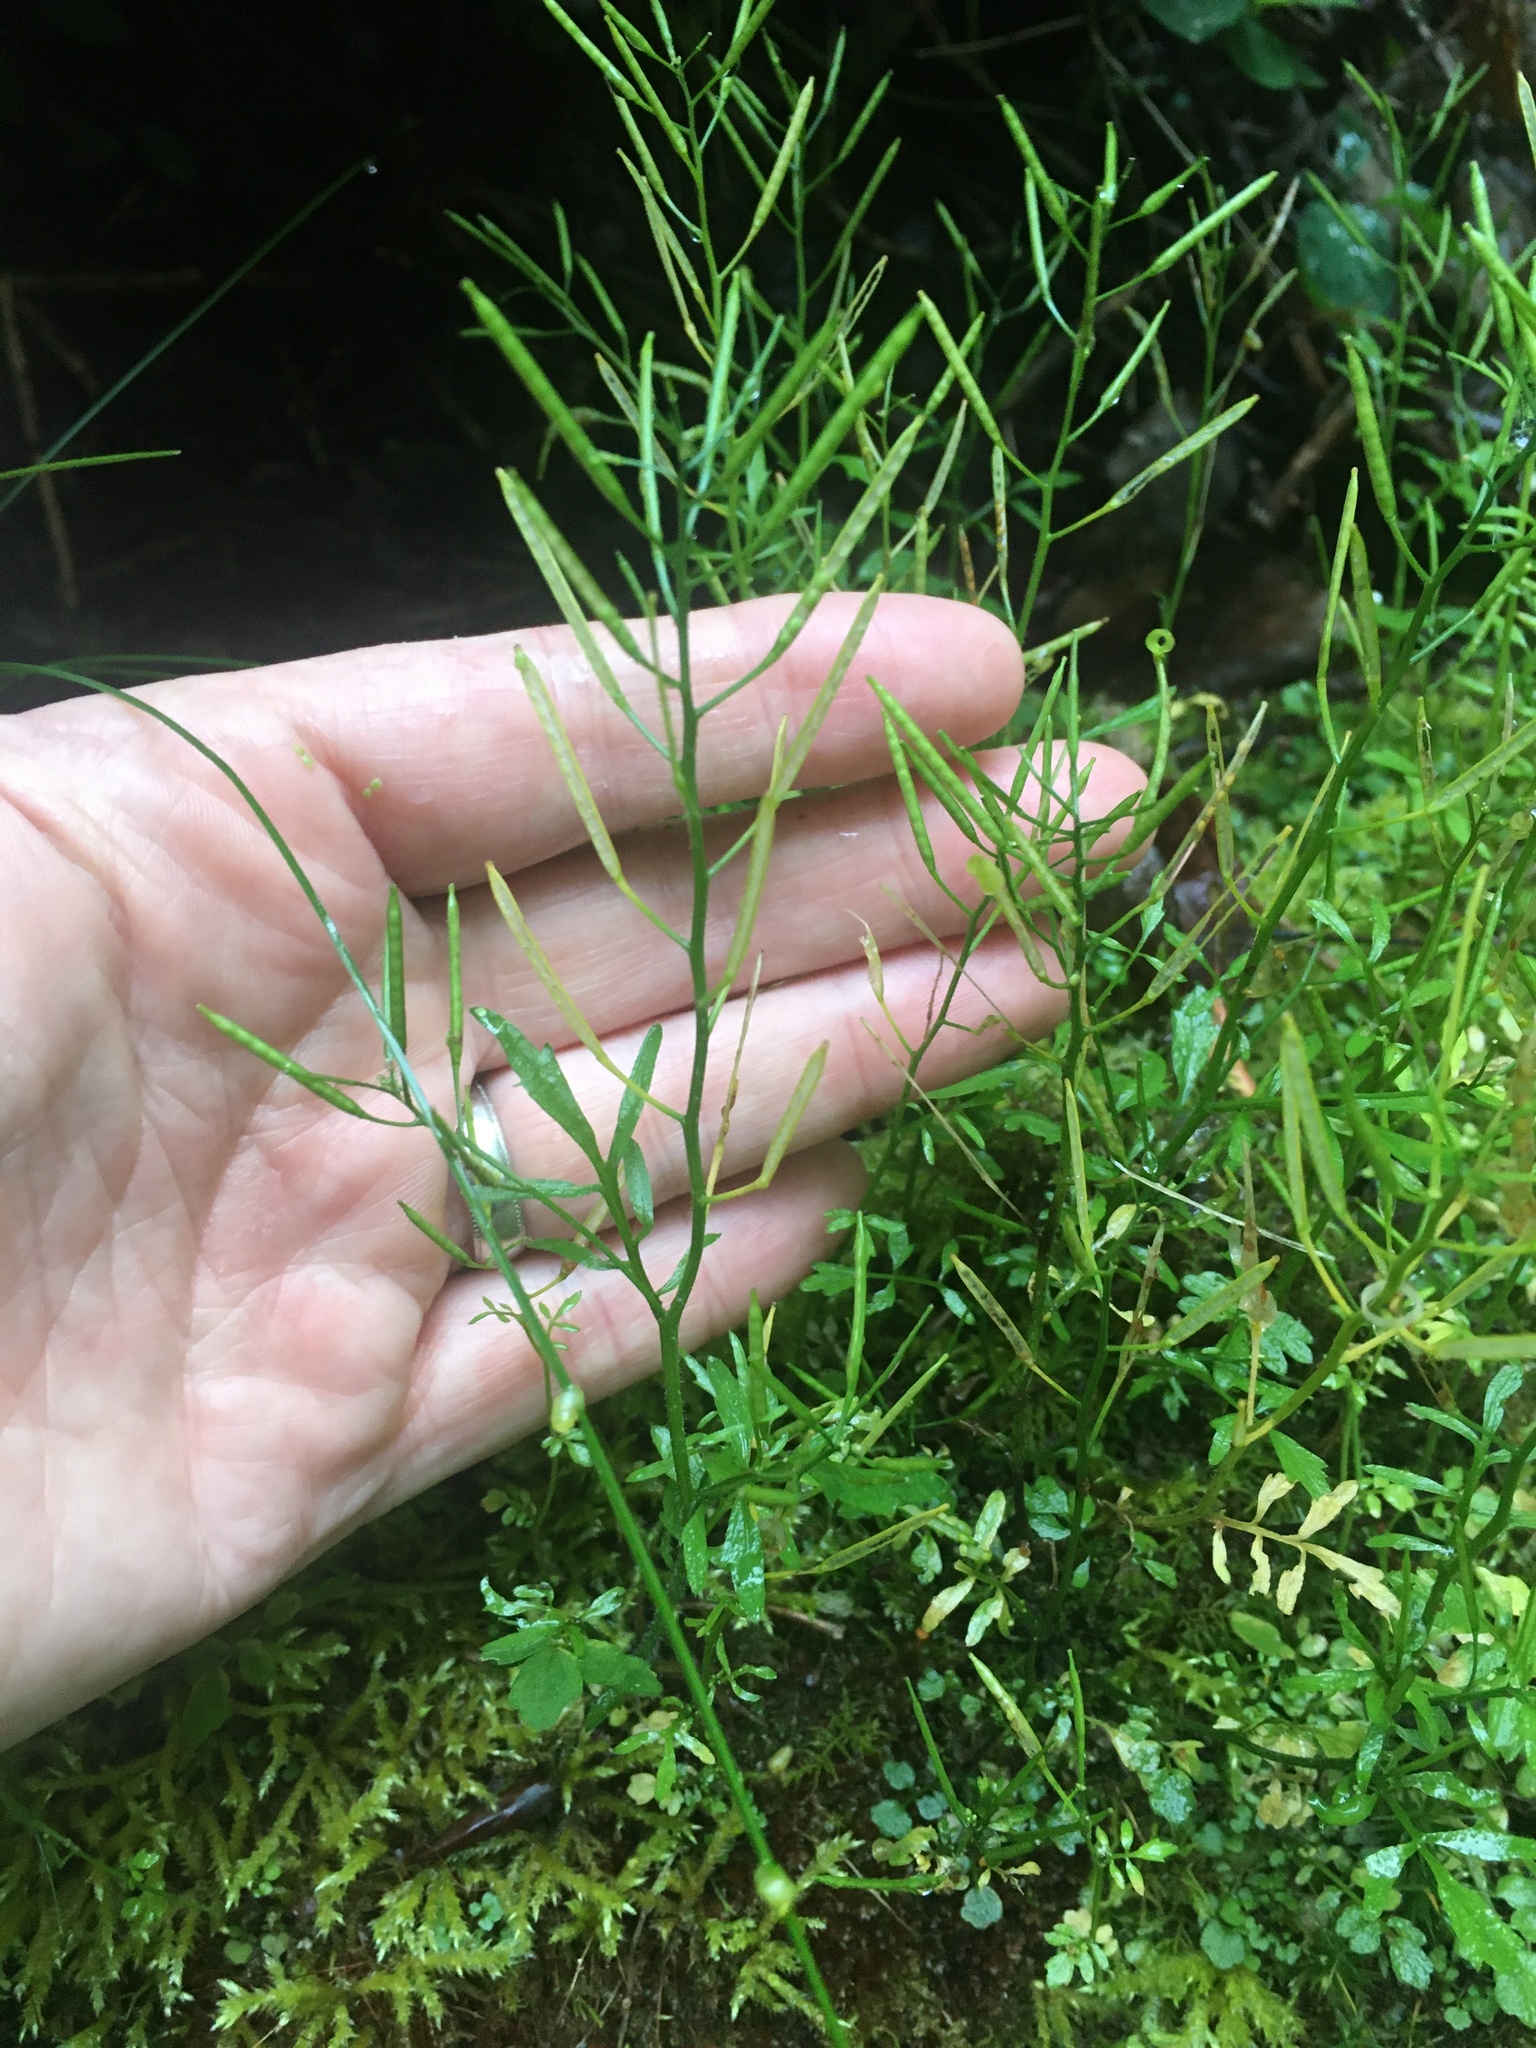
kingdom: Plantae
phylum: Tracheophyta
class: Magnoliopsida
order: Brassicales
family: Brassicaceae
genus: Cardamine
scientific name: Cardamine flexuosa
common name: Woodland bittercress
